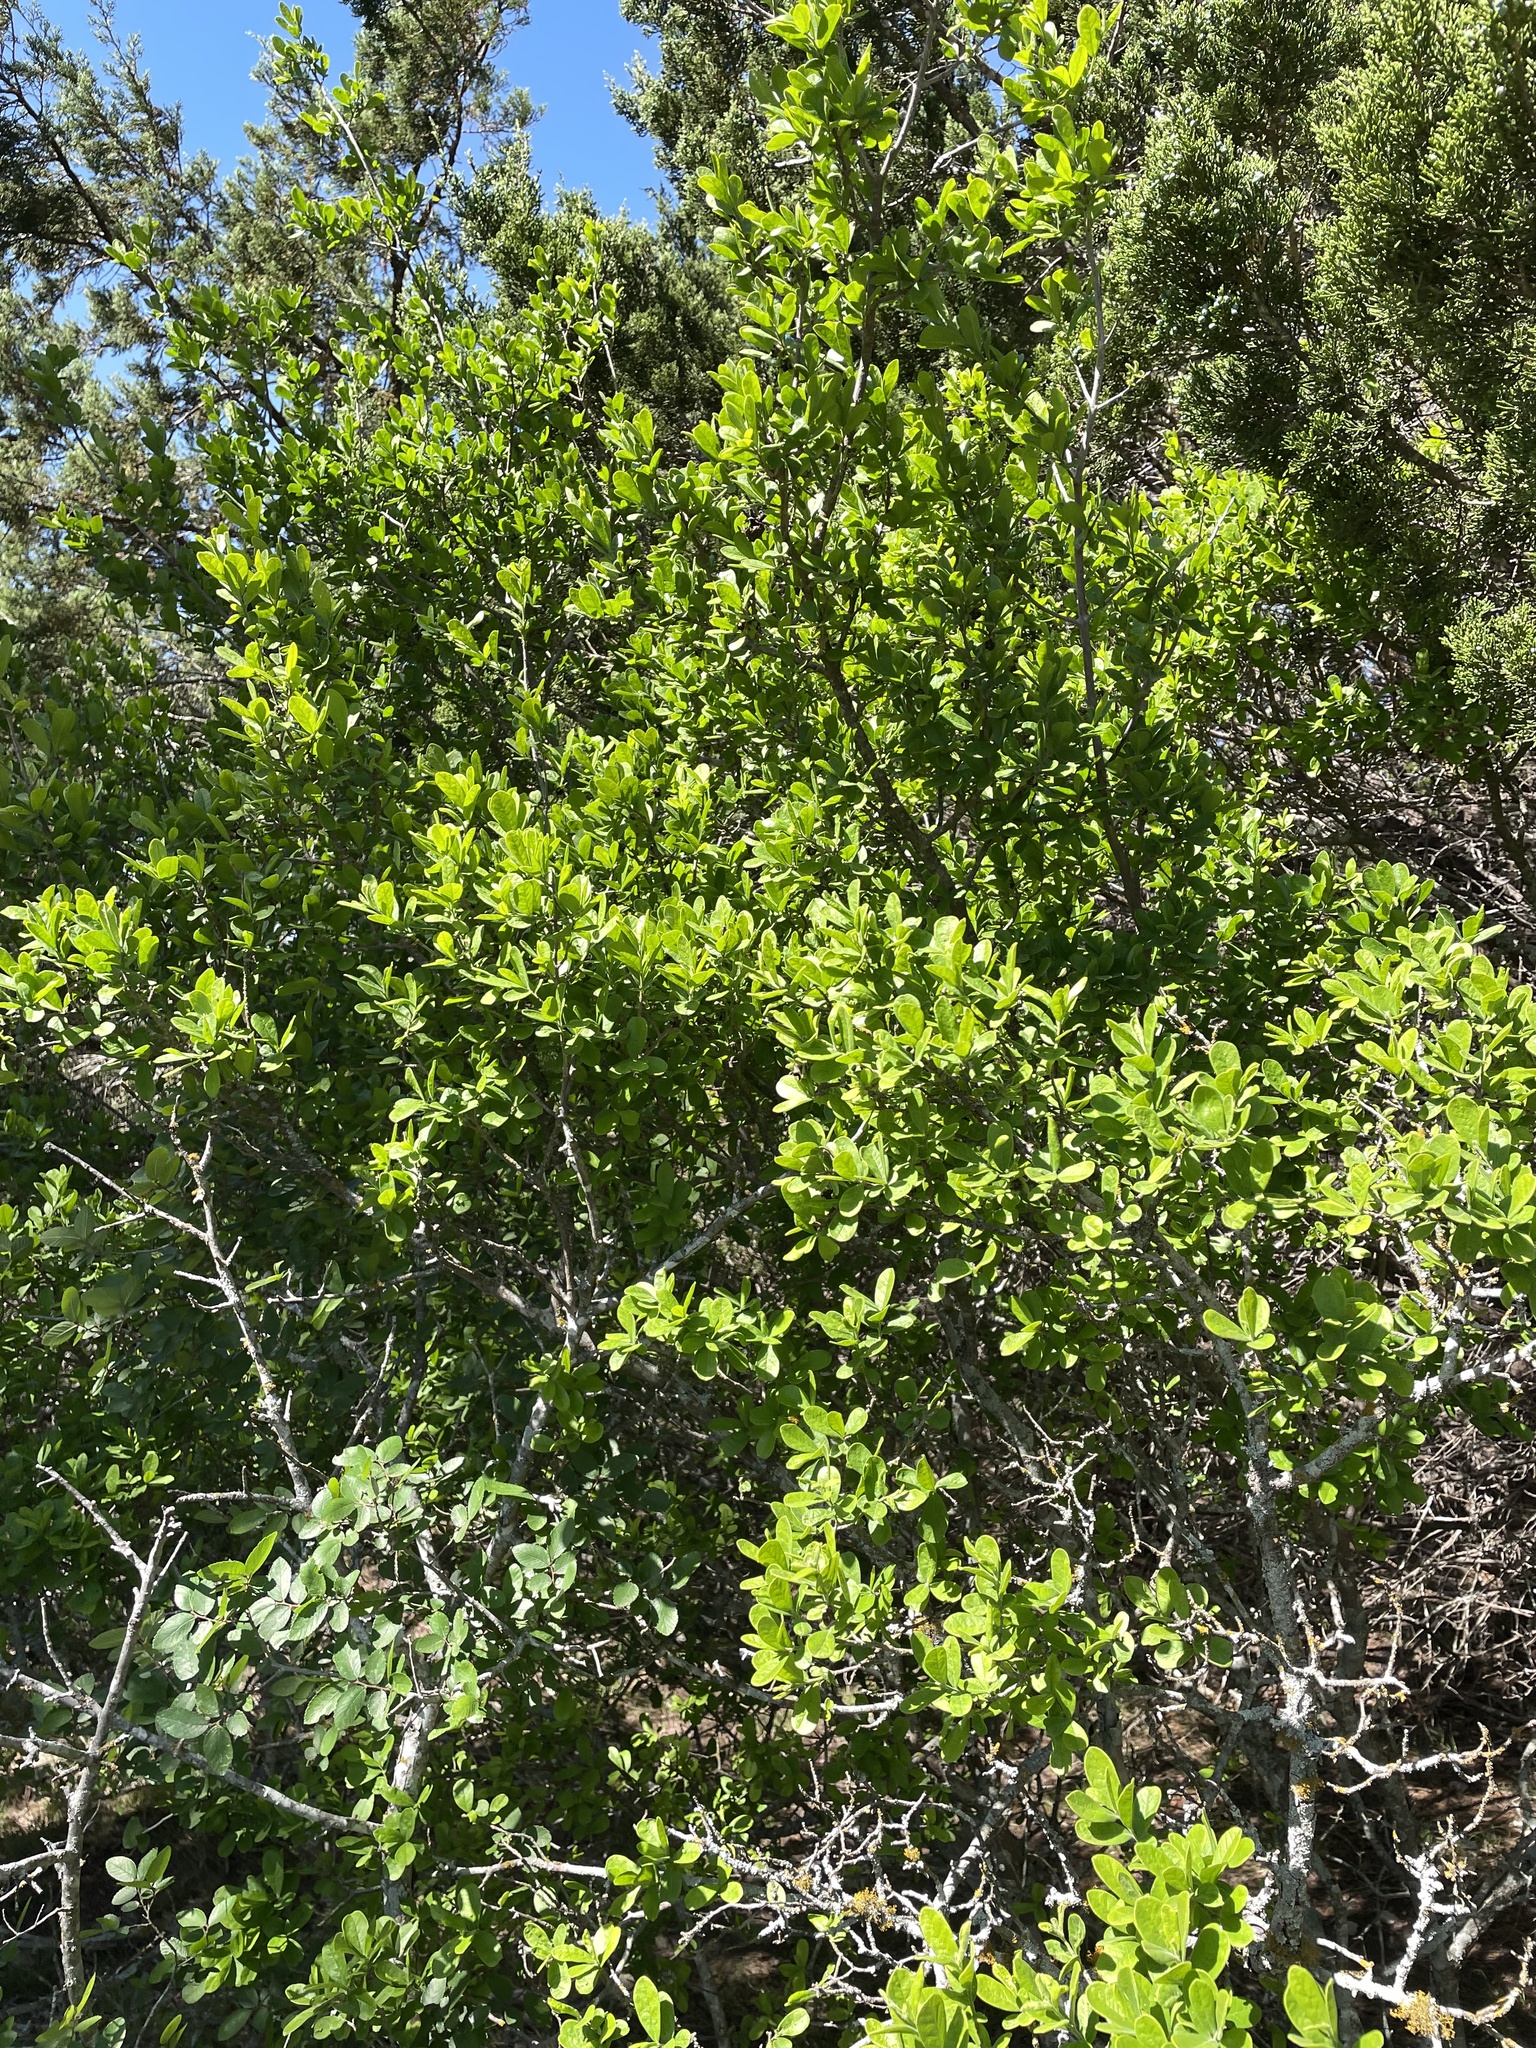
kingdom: Plantae
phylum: Tracheophyta
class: Magnoliopsida
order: Ericales
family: Ebenaceae
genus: Diospyros
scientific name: Diospyros texana
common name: Texas persimmon
